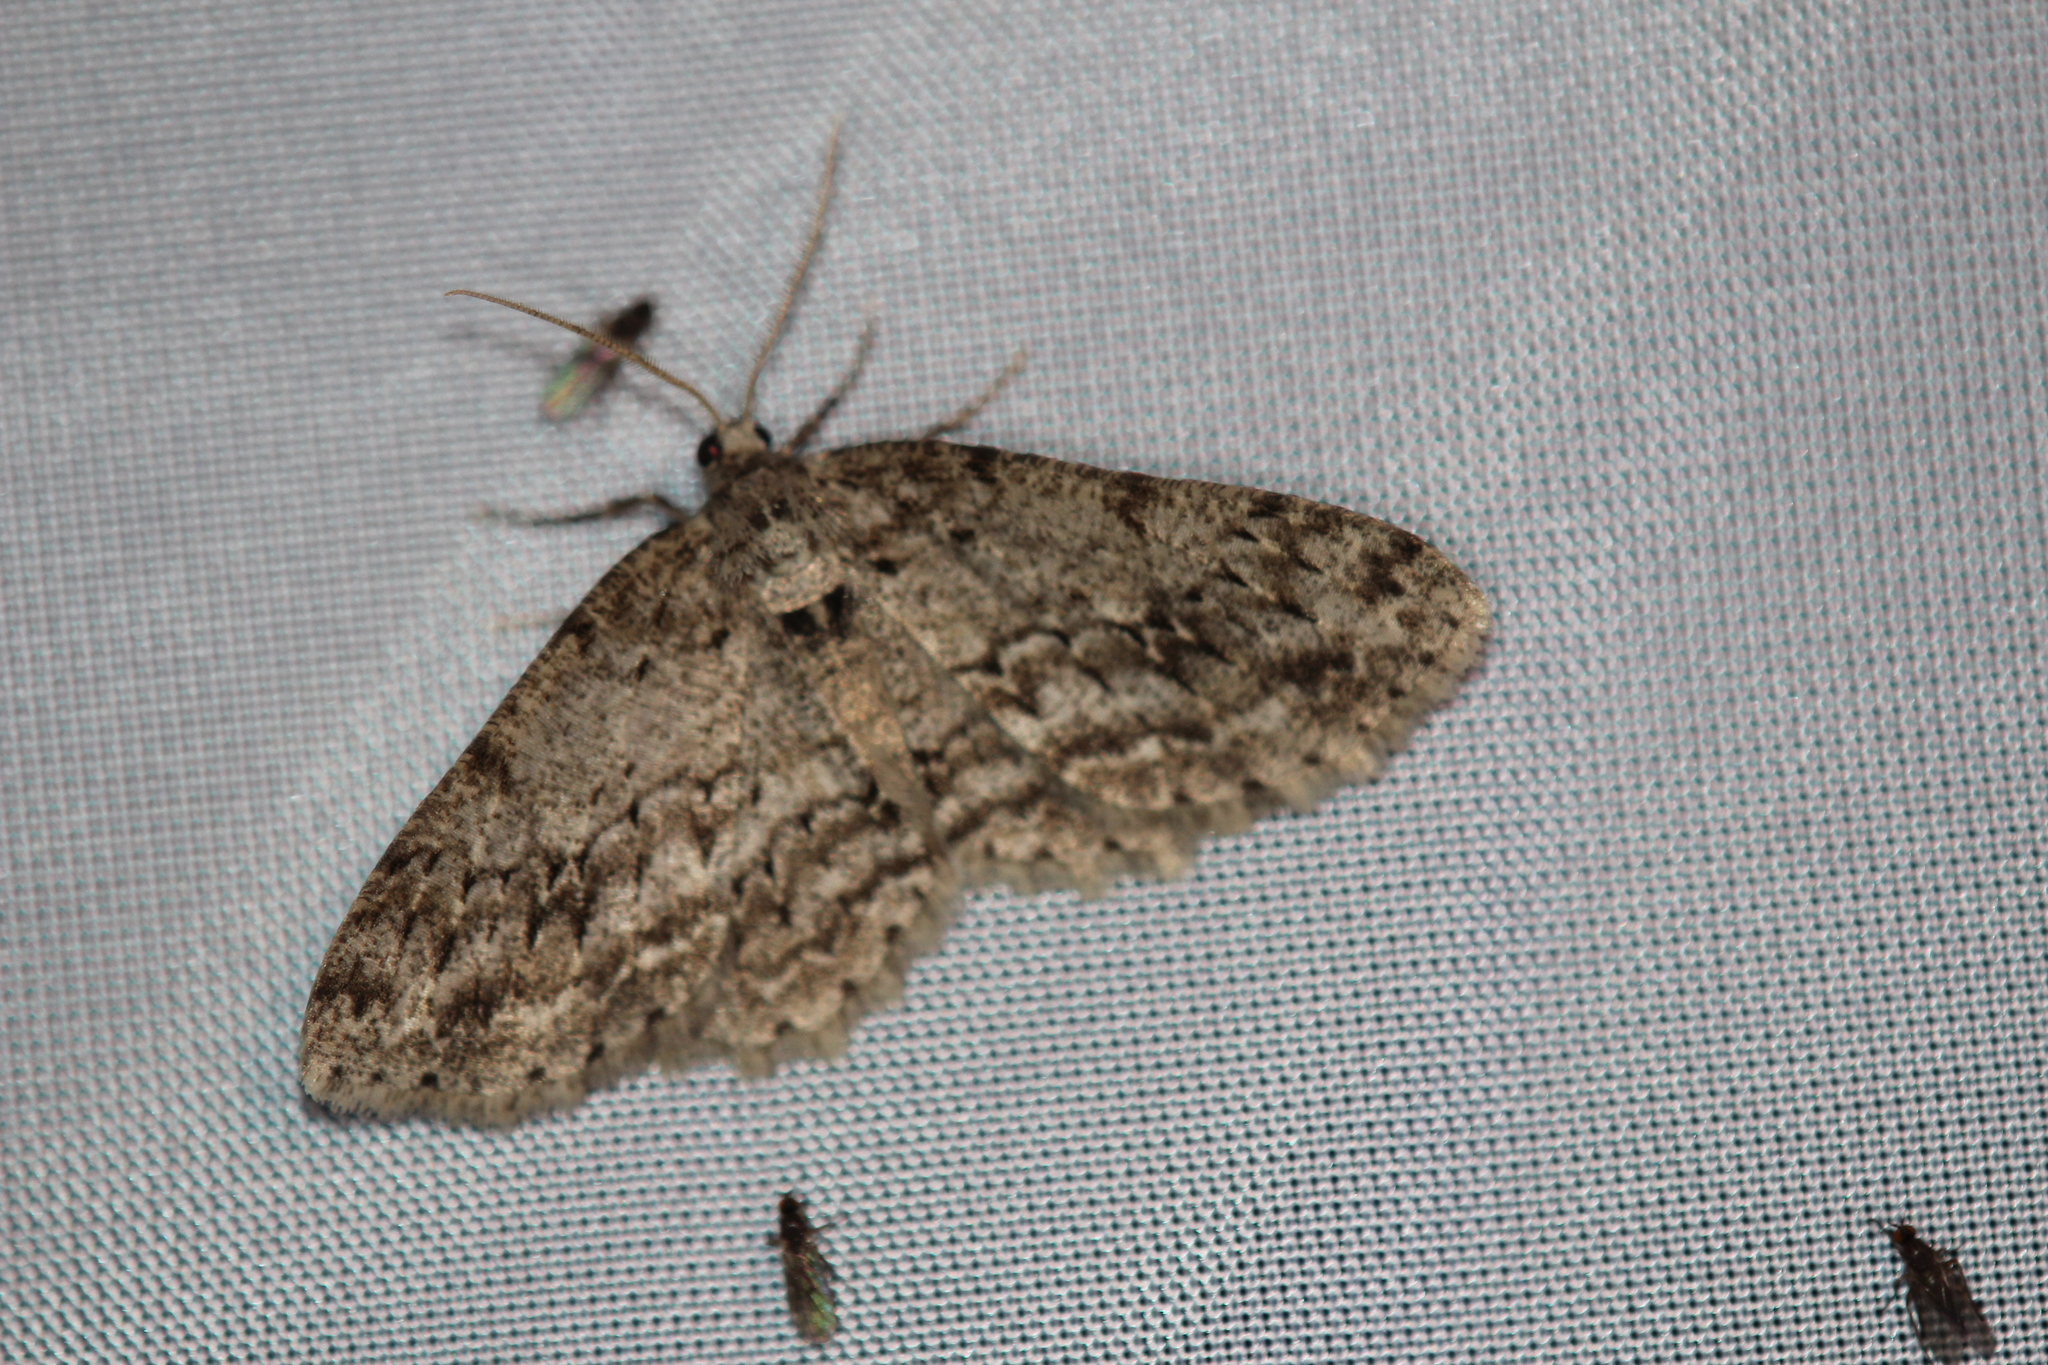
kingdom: Animalia
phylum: Arthropoda
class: Insecta
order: Lepidoptera
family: Geometridae
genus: Ectropis
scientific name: Ectropis crepuscularia
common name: Engrailed
